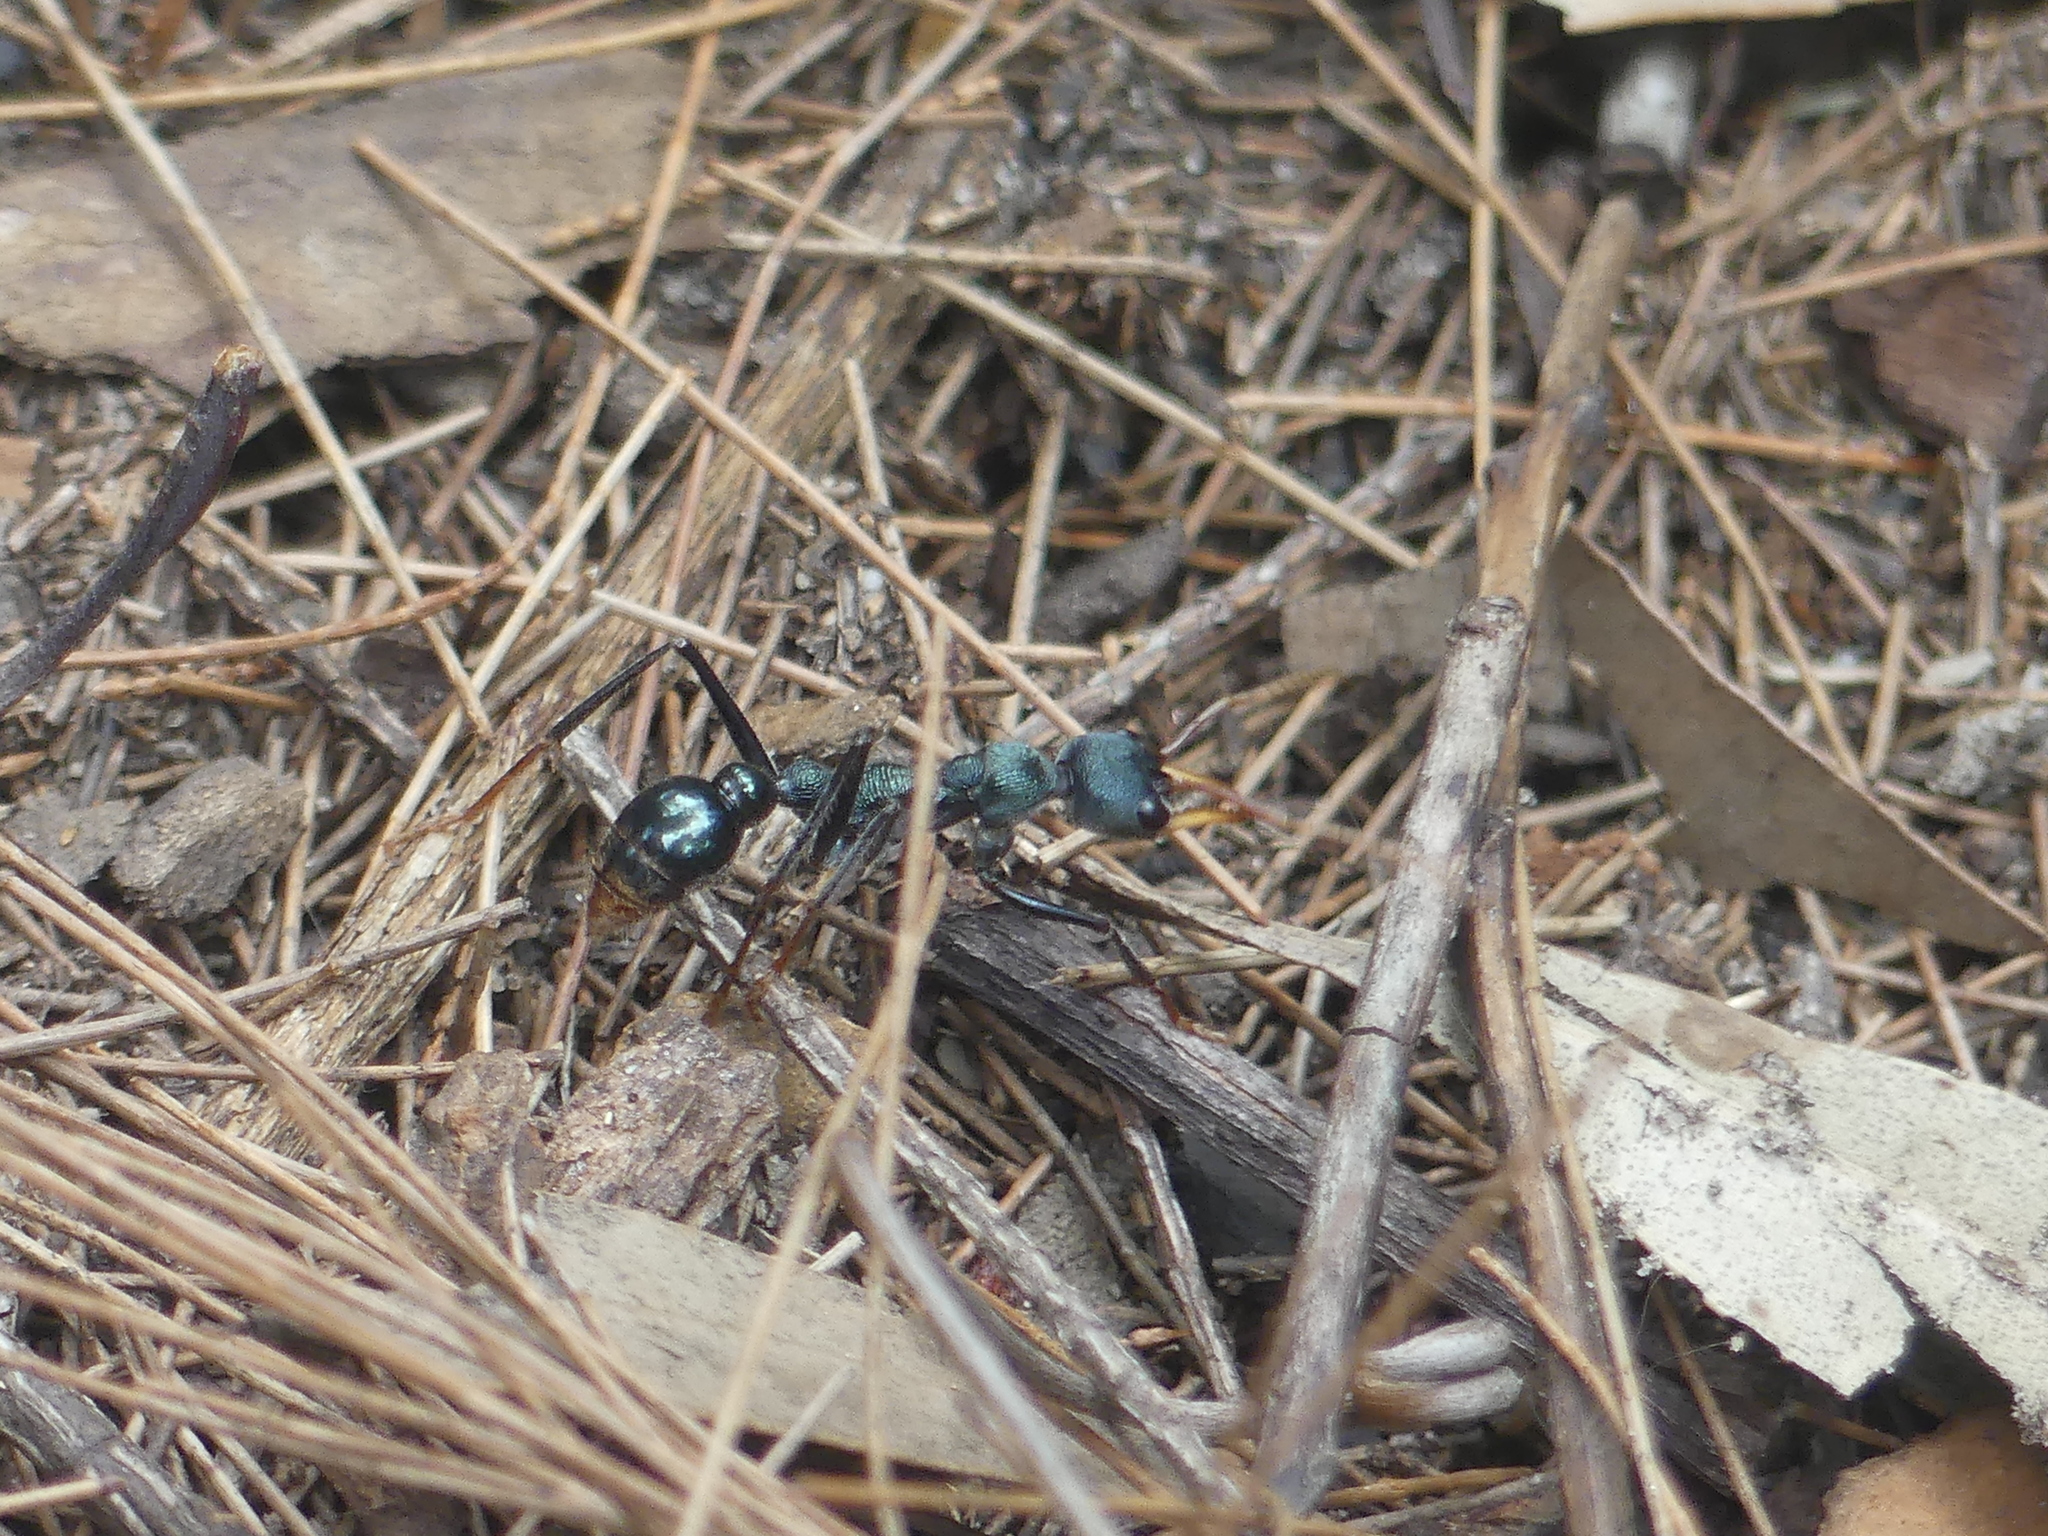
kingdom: Animalia
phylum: Arthropoda
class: Insecta
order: Hymenoptera
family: Formicidae
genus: Myrmecia
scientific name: Myrmecia tarsata
